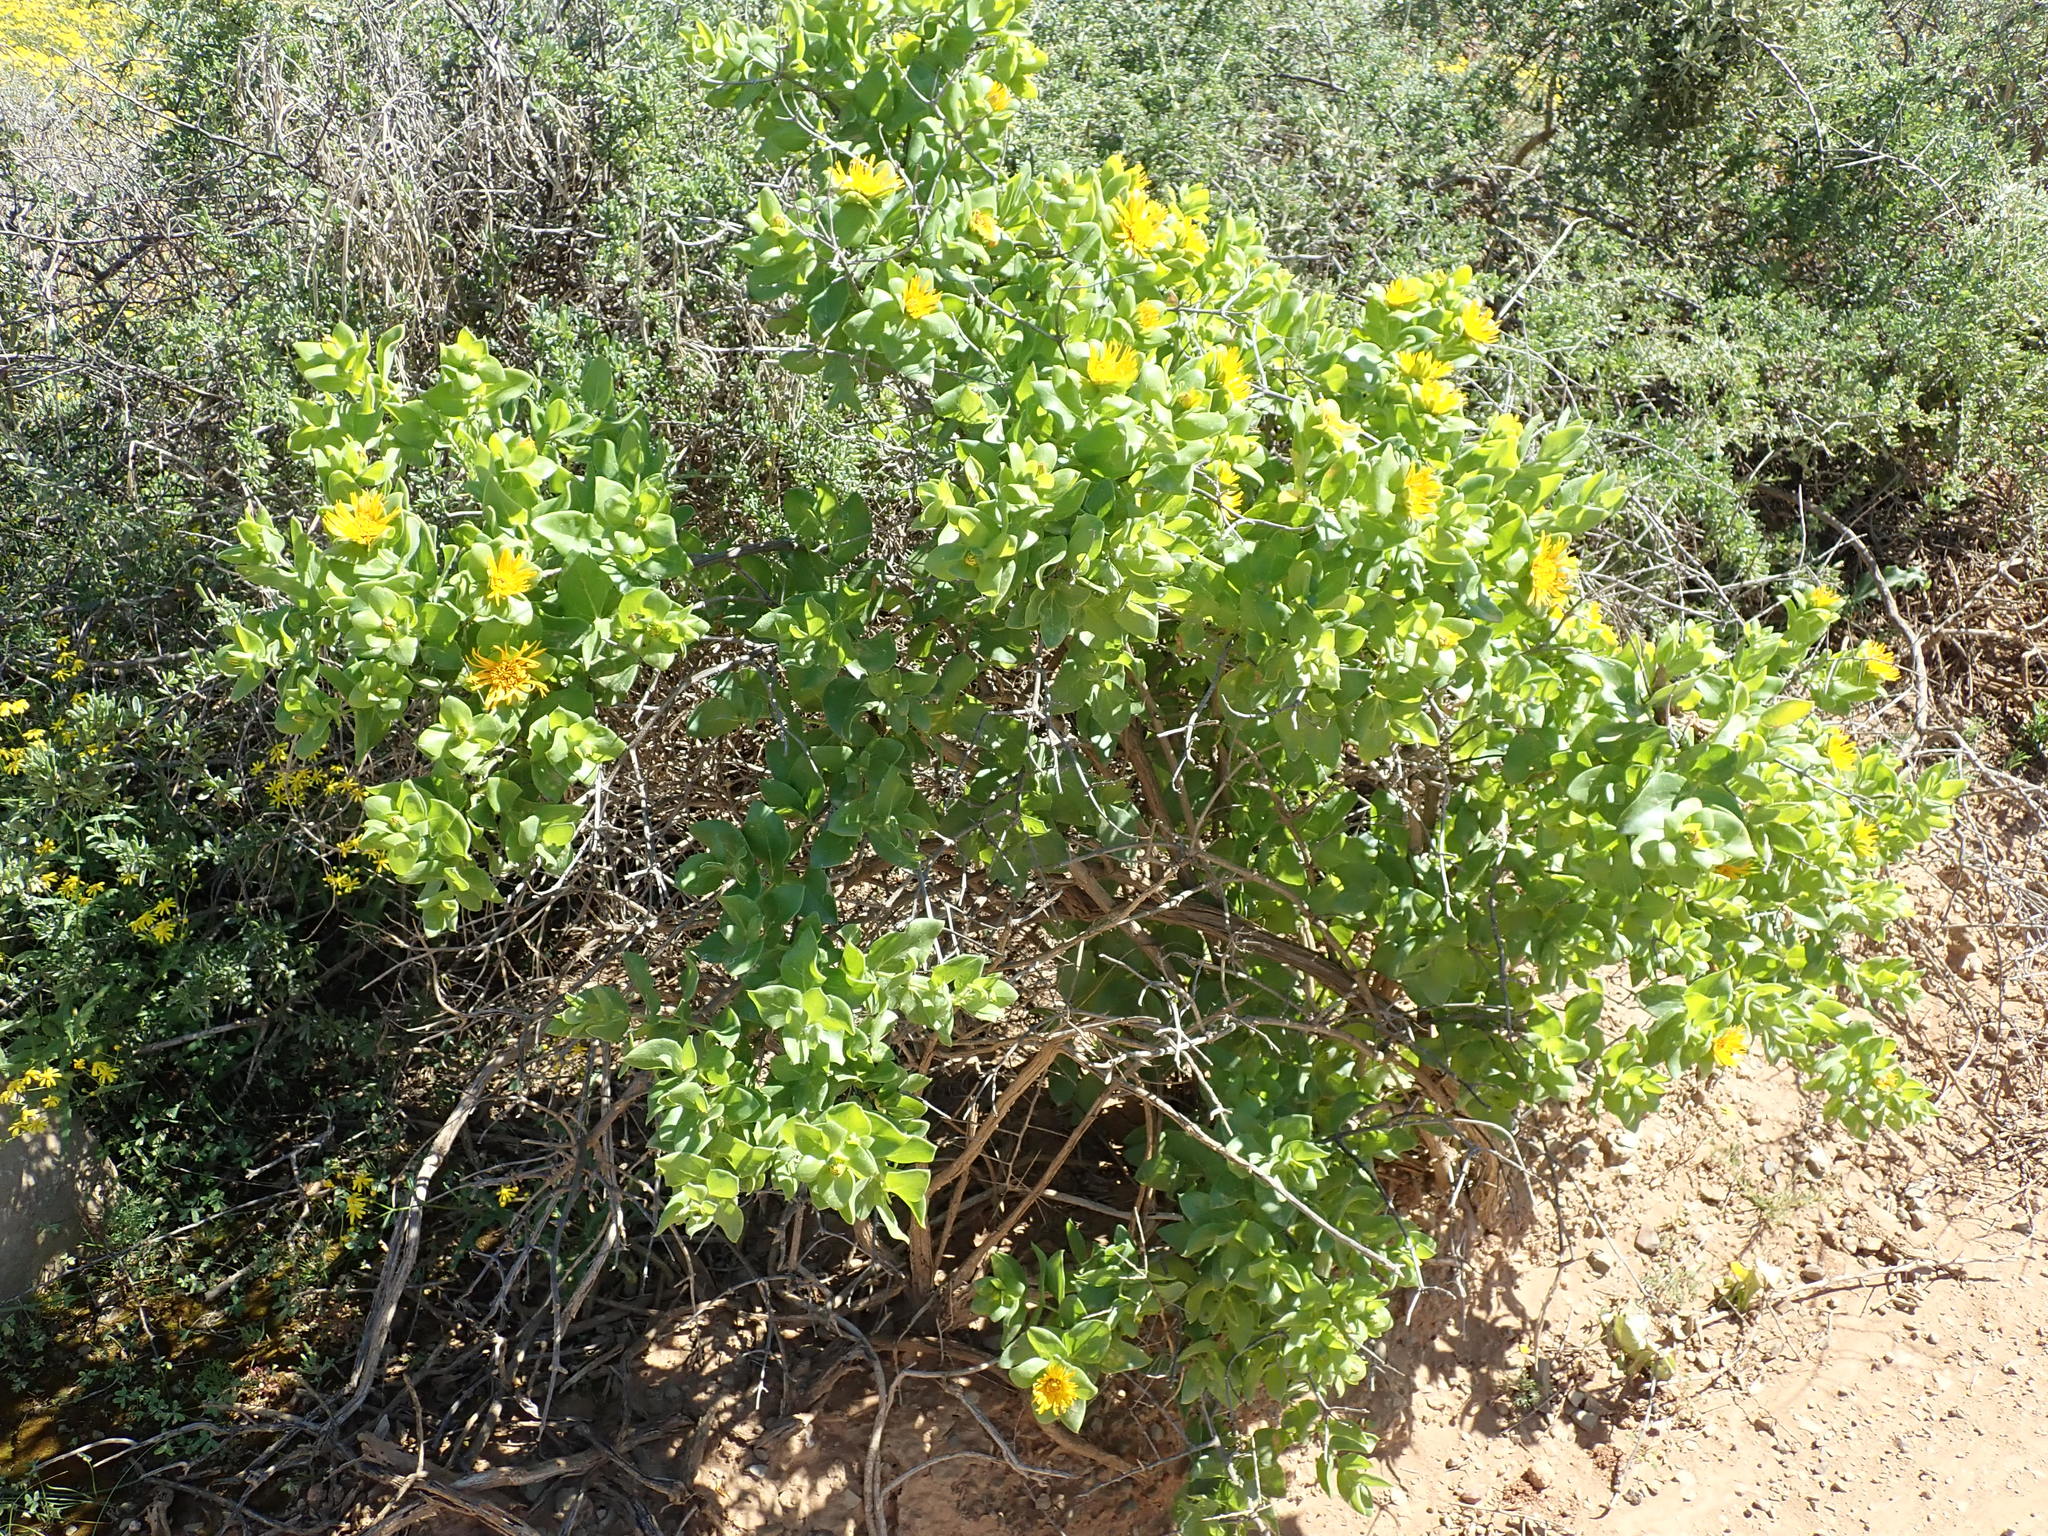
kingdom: Plantae
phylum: Tracheophyta
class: Magnoliopsida
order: Asterales
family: Asteraceae
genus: Didelta
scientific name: Didelta spinosa
